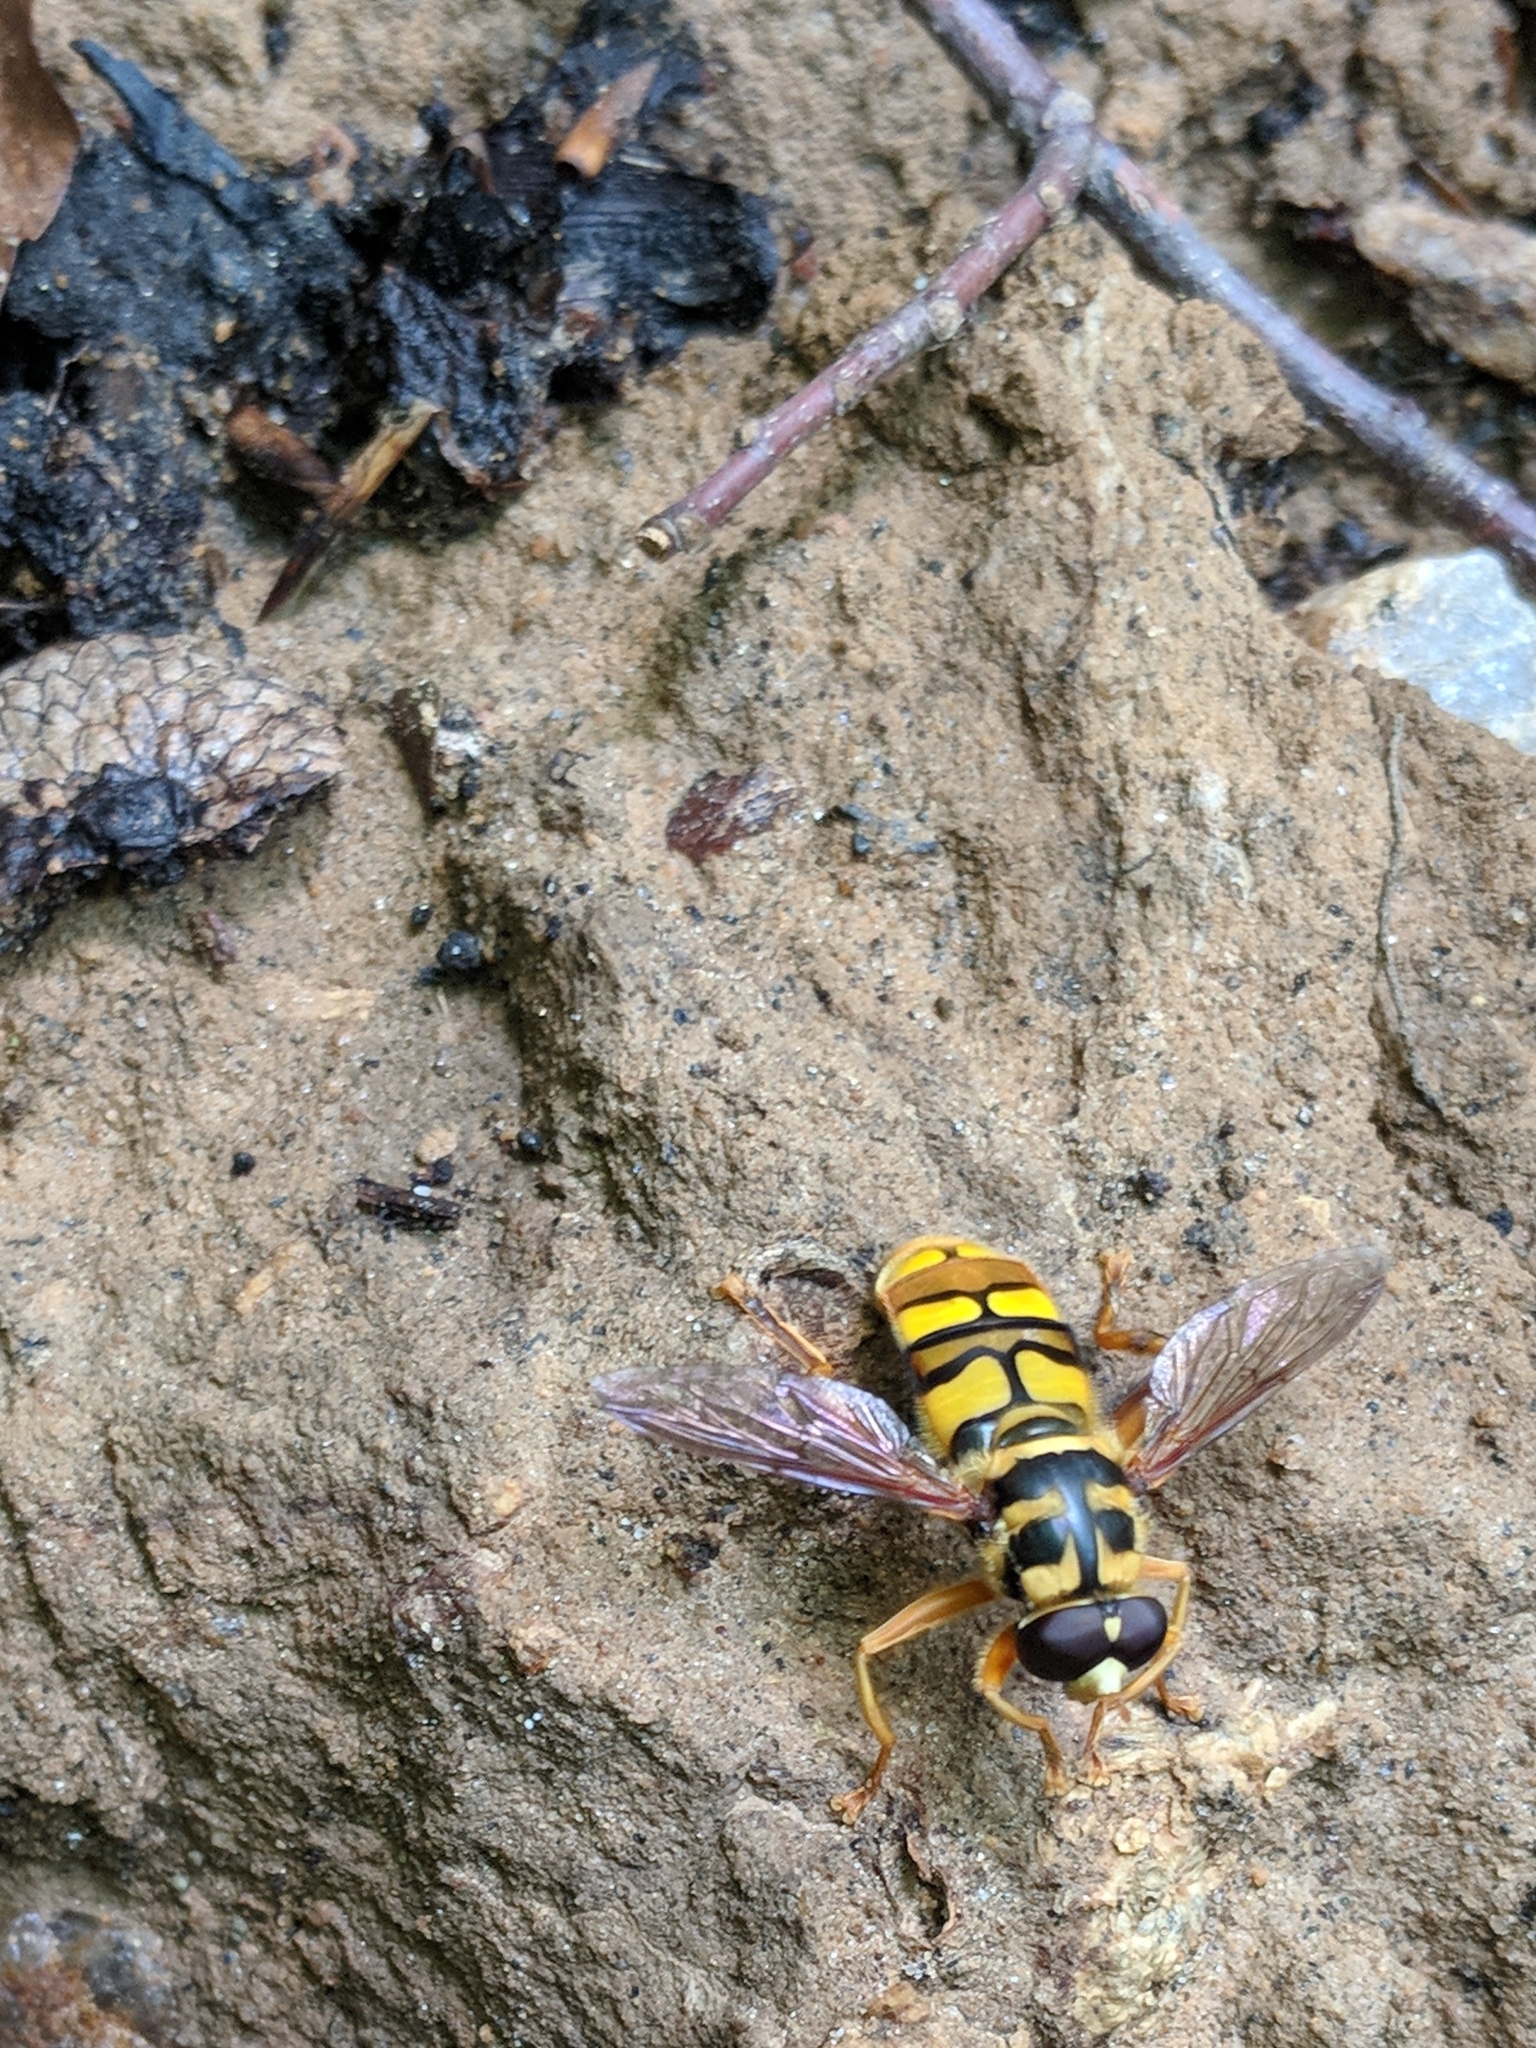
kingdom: Animalia
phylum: Arthropoda
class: Insecta
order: Diptera
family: Syrphidae
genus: Milesia
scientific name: Milesia virginiensis
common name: Virginia giant
